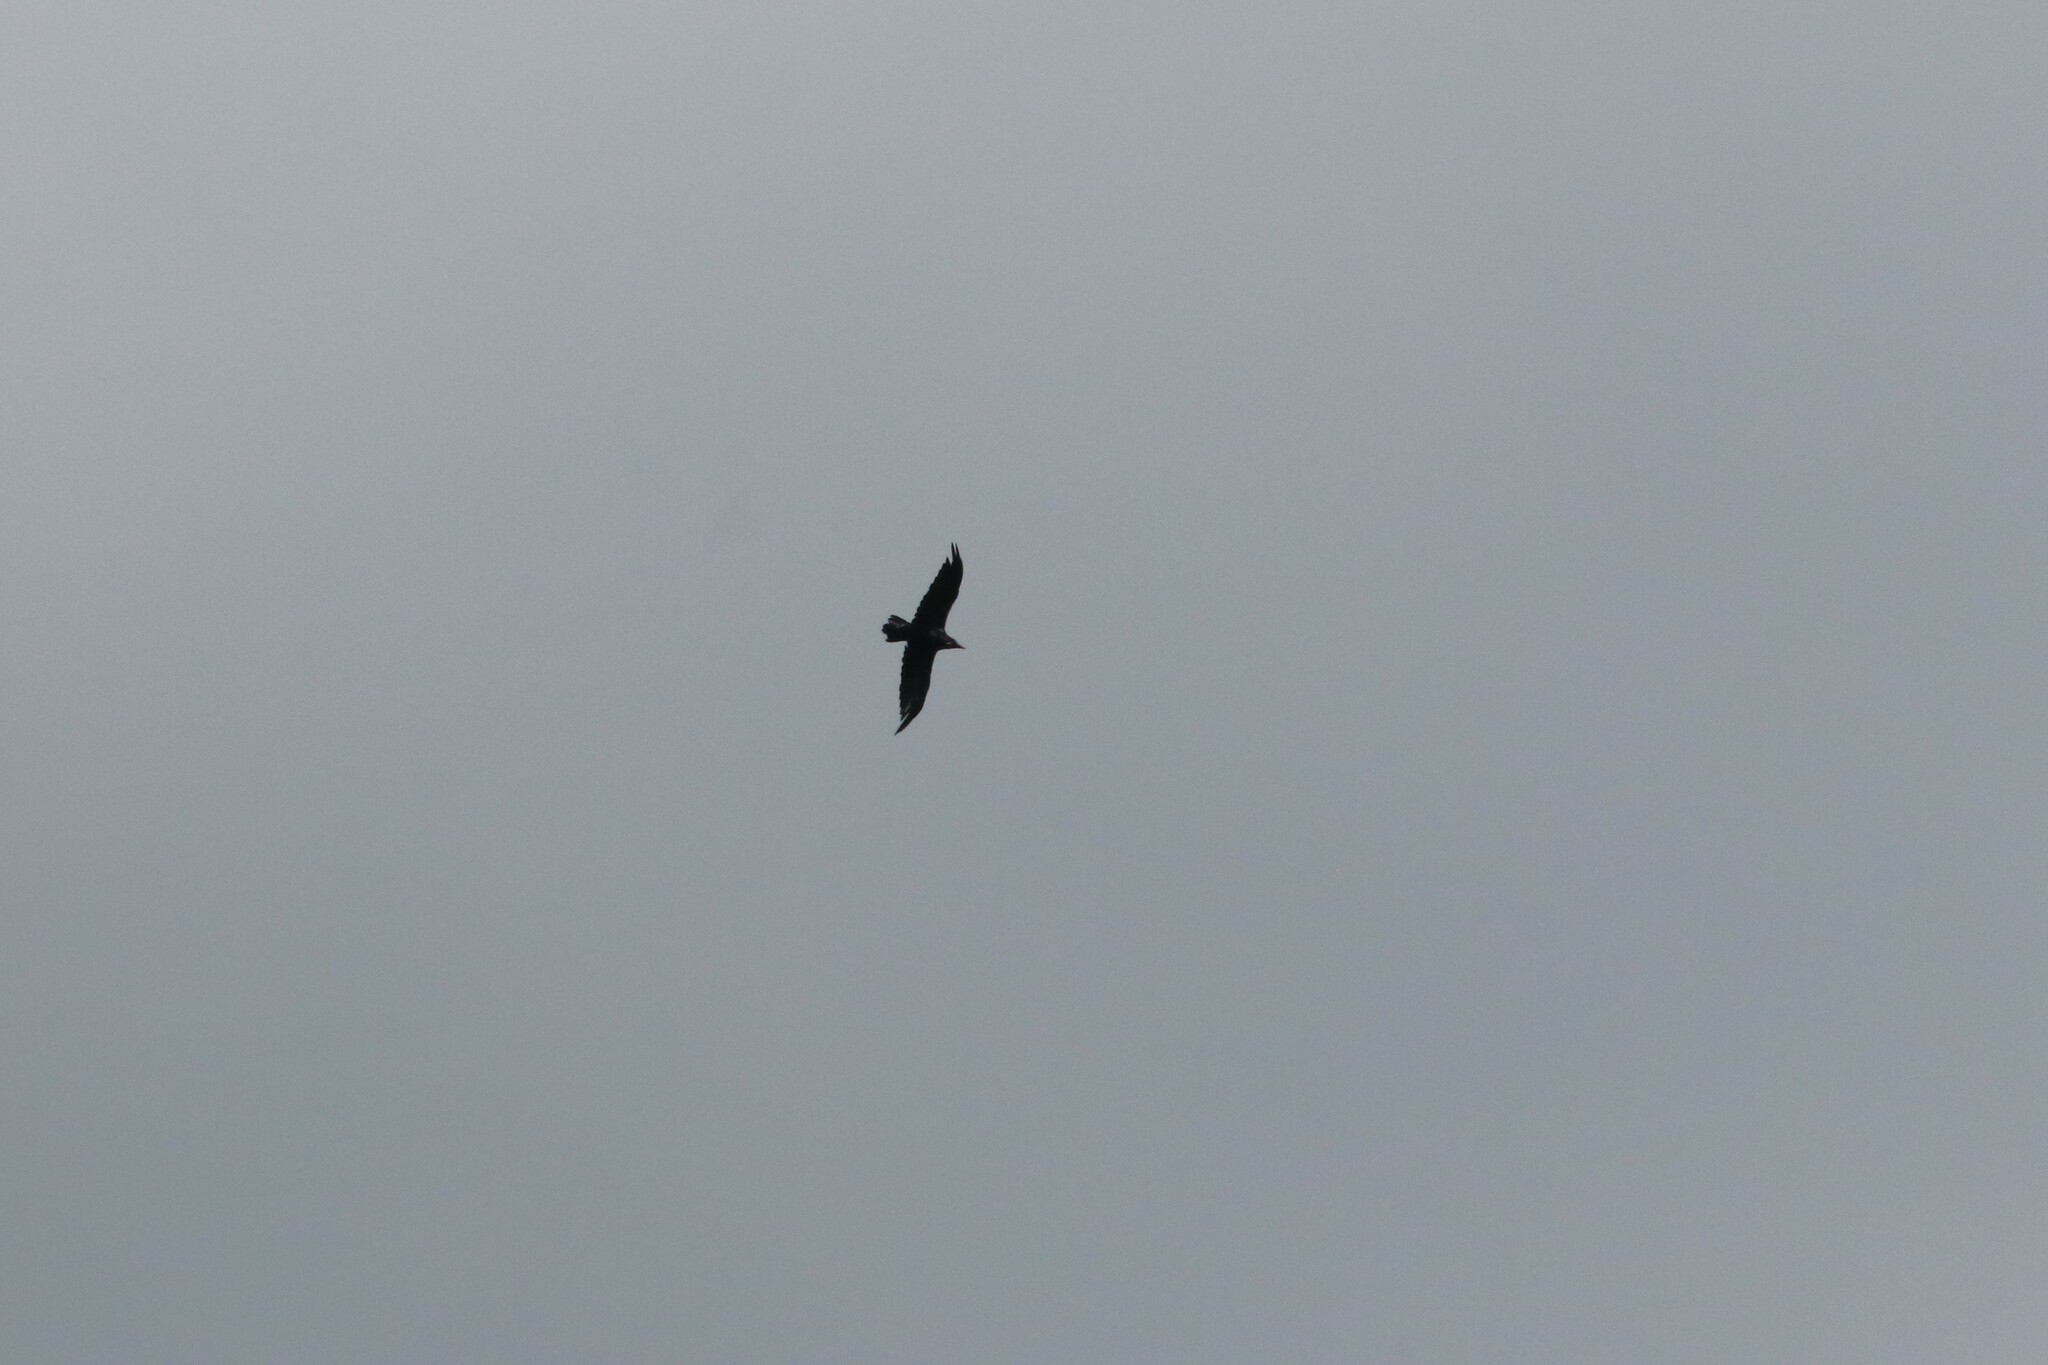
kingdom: Animalia
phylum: Chordata
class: Aves
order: Passeriformes
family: Corvidae
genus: Corvus
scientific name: Corvus corax
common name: Common raven
